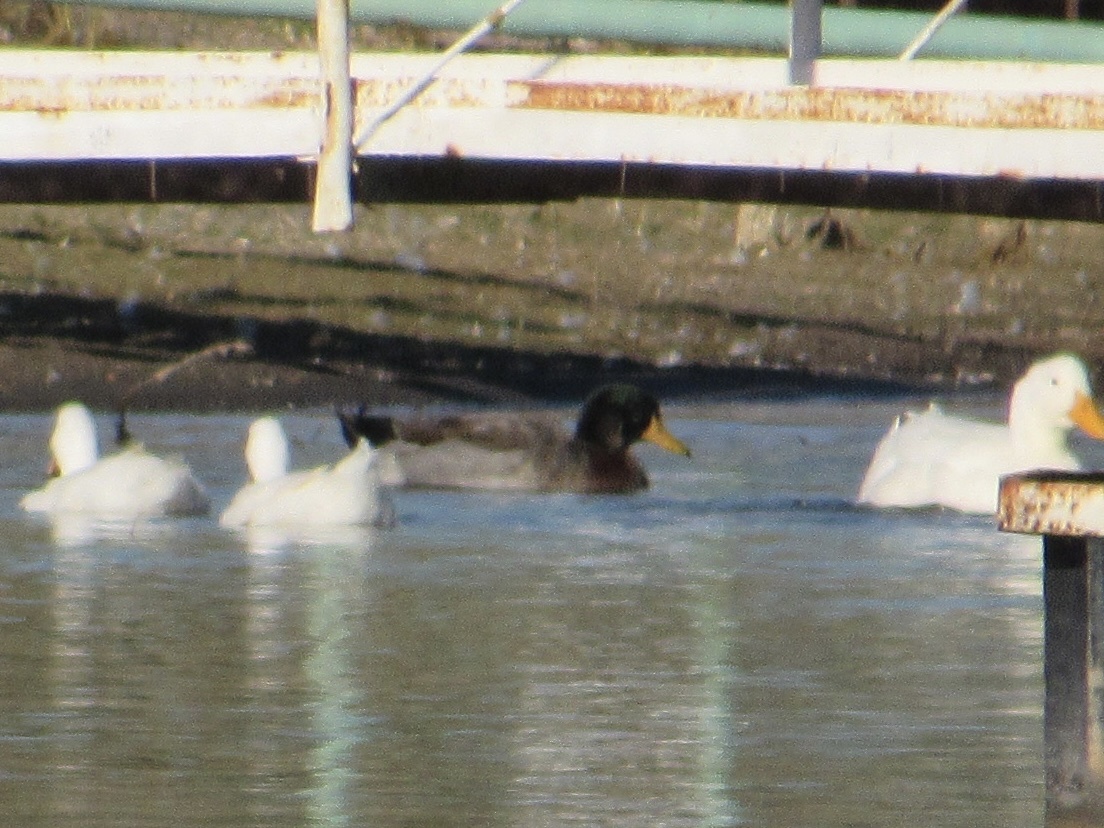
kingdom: Animalia
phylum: Chordata
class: Aves
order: Anseriformes
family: Anatidae
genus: Anas
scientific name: Anas platyrhynchos
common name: Mallard
